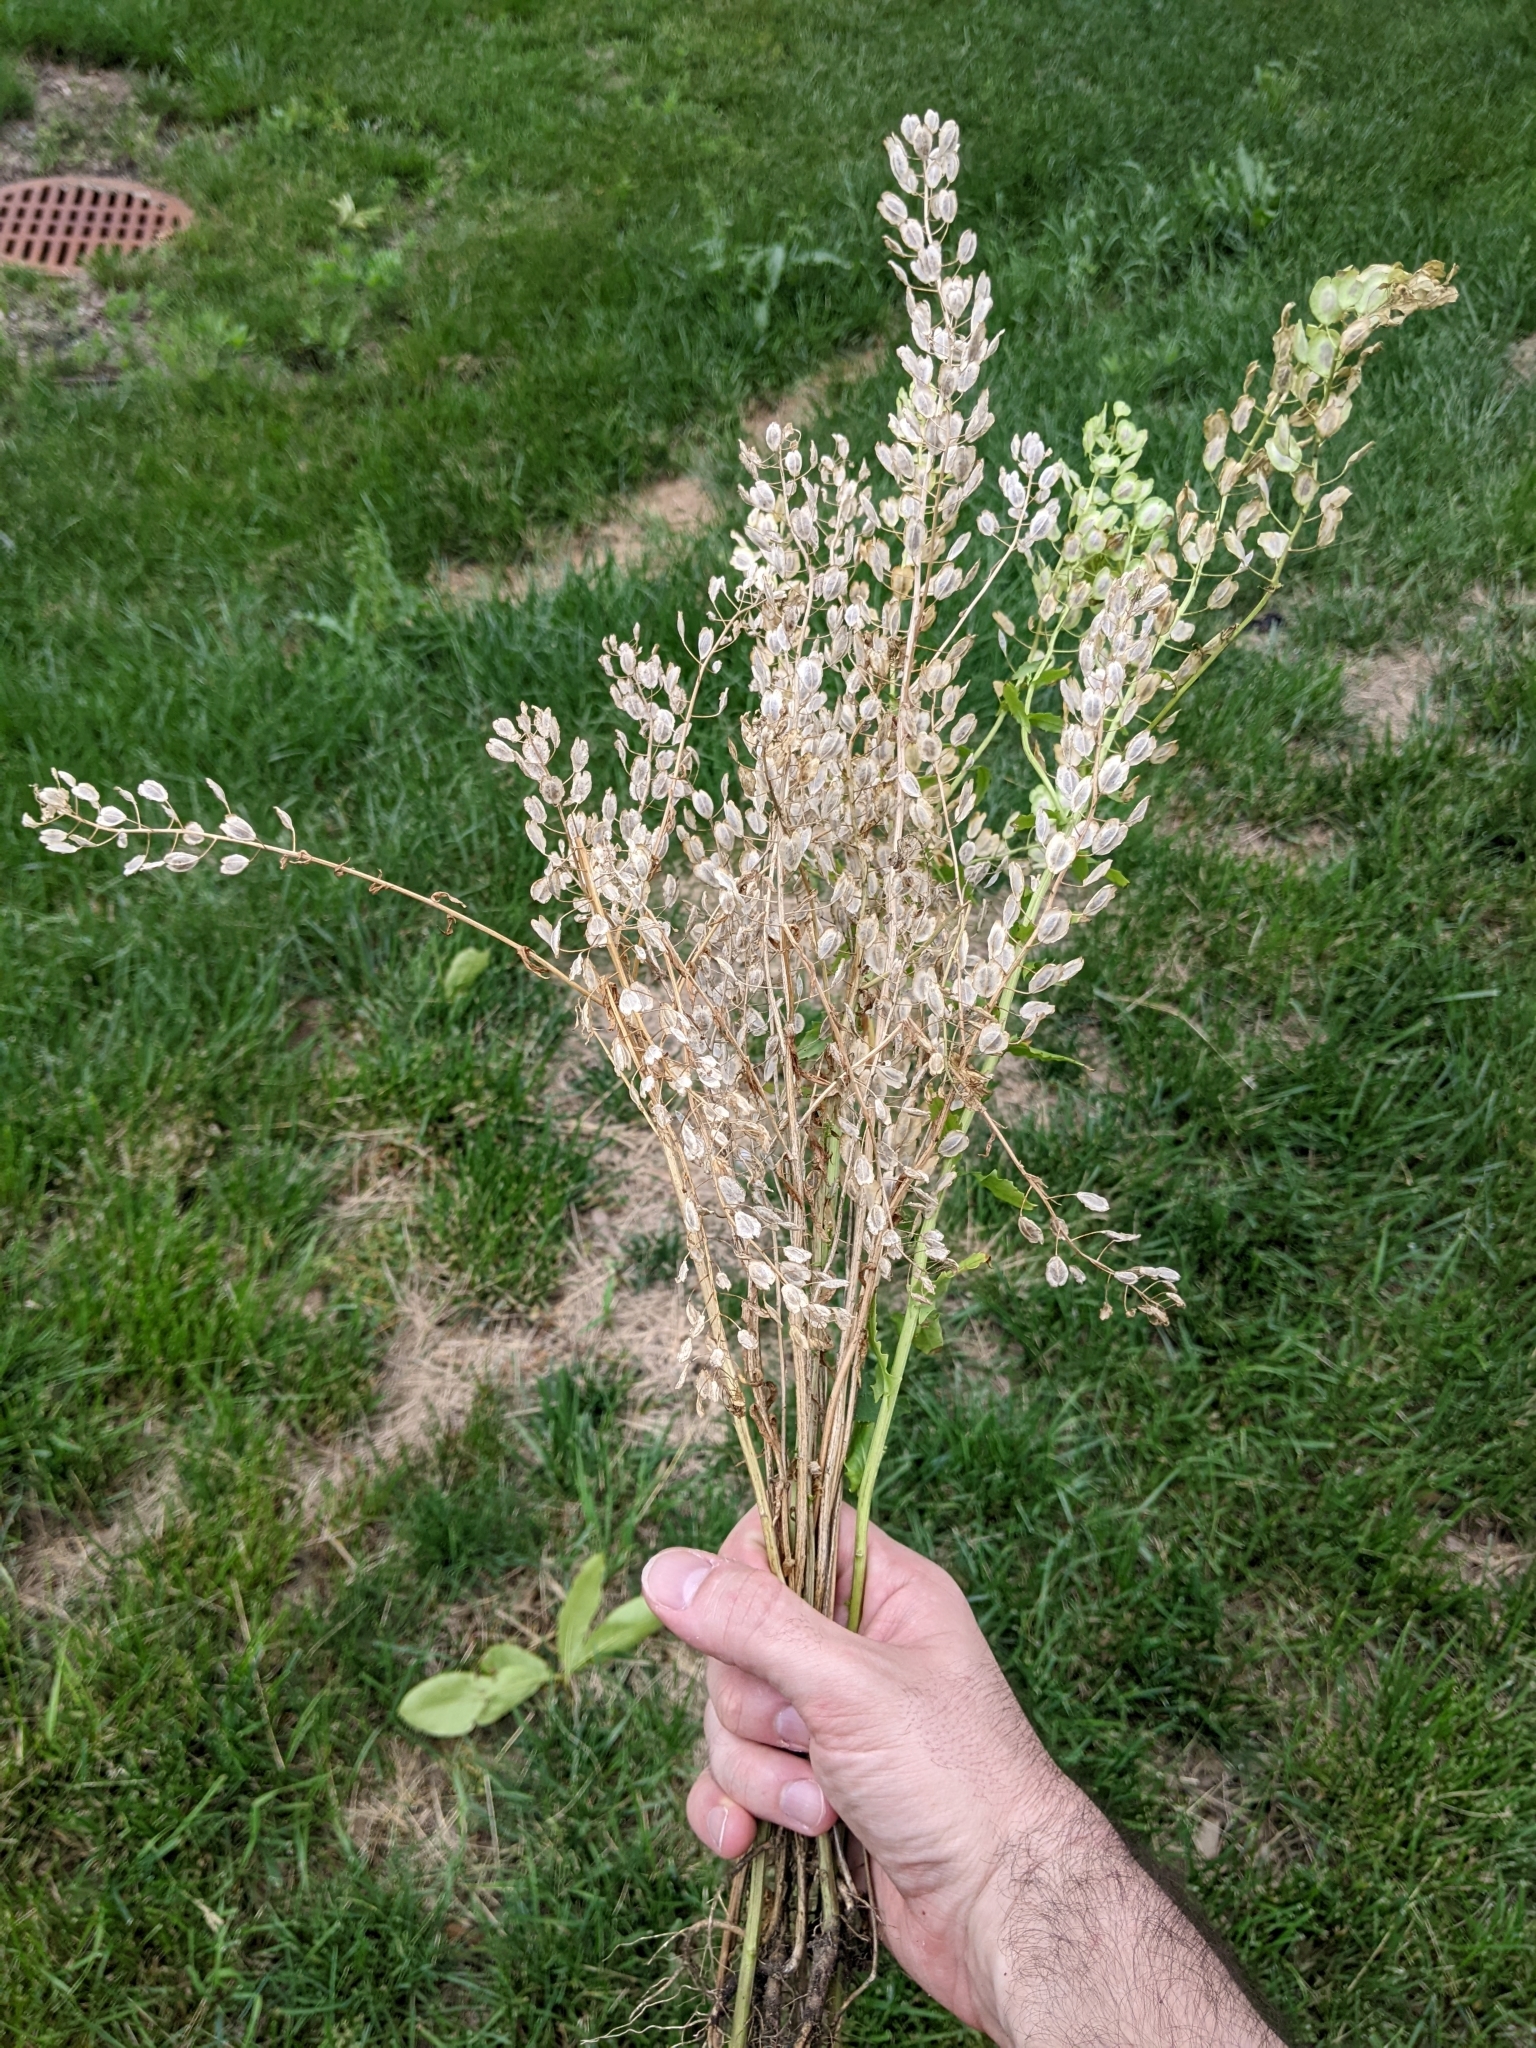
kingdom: Plantae
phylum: Tracheophyta
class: Magnoliopsida
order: Brassicales
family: Brassicaceae
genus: Thlaspi
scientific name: Thlaspi arvense
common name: Field pennycress
